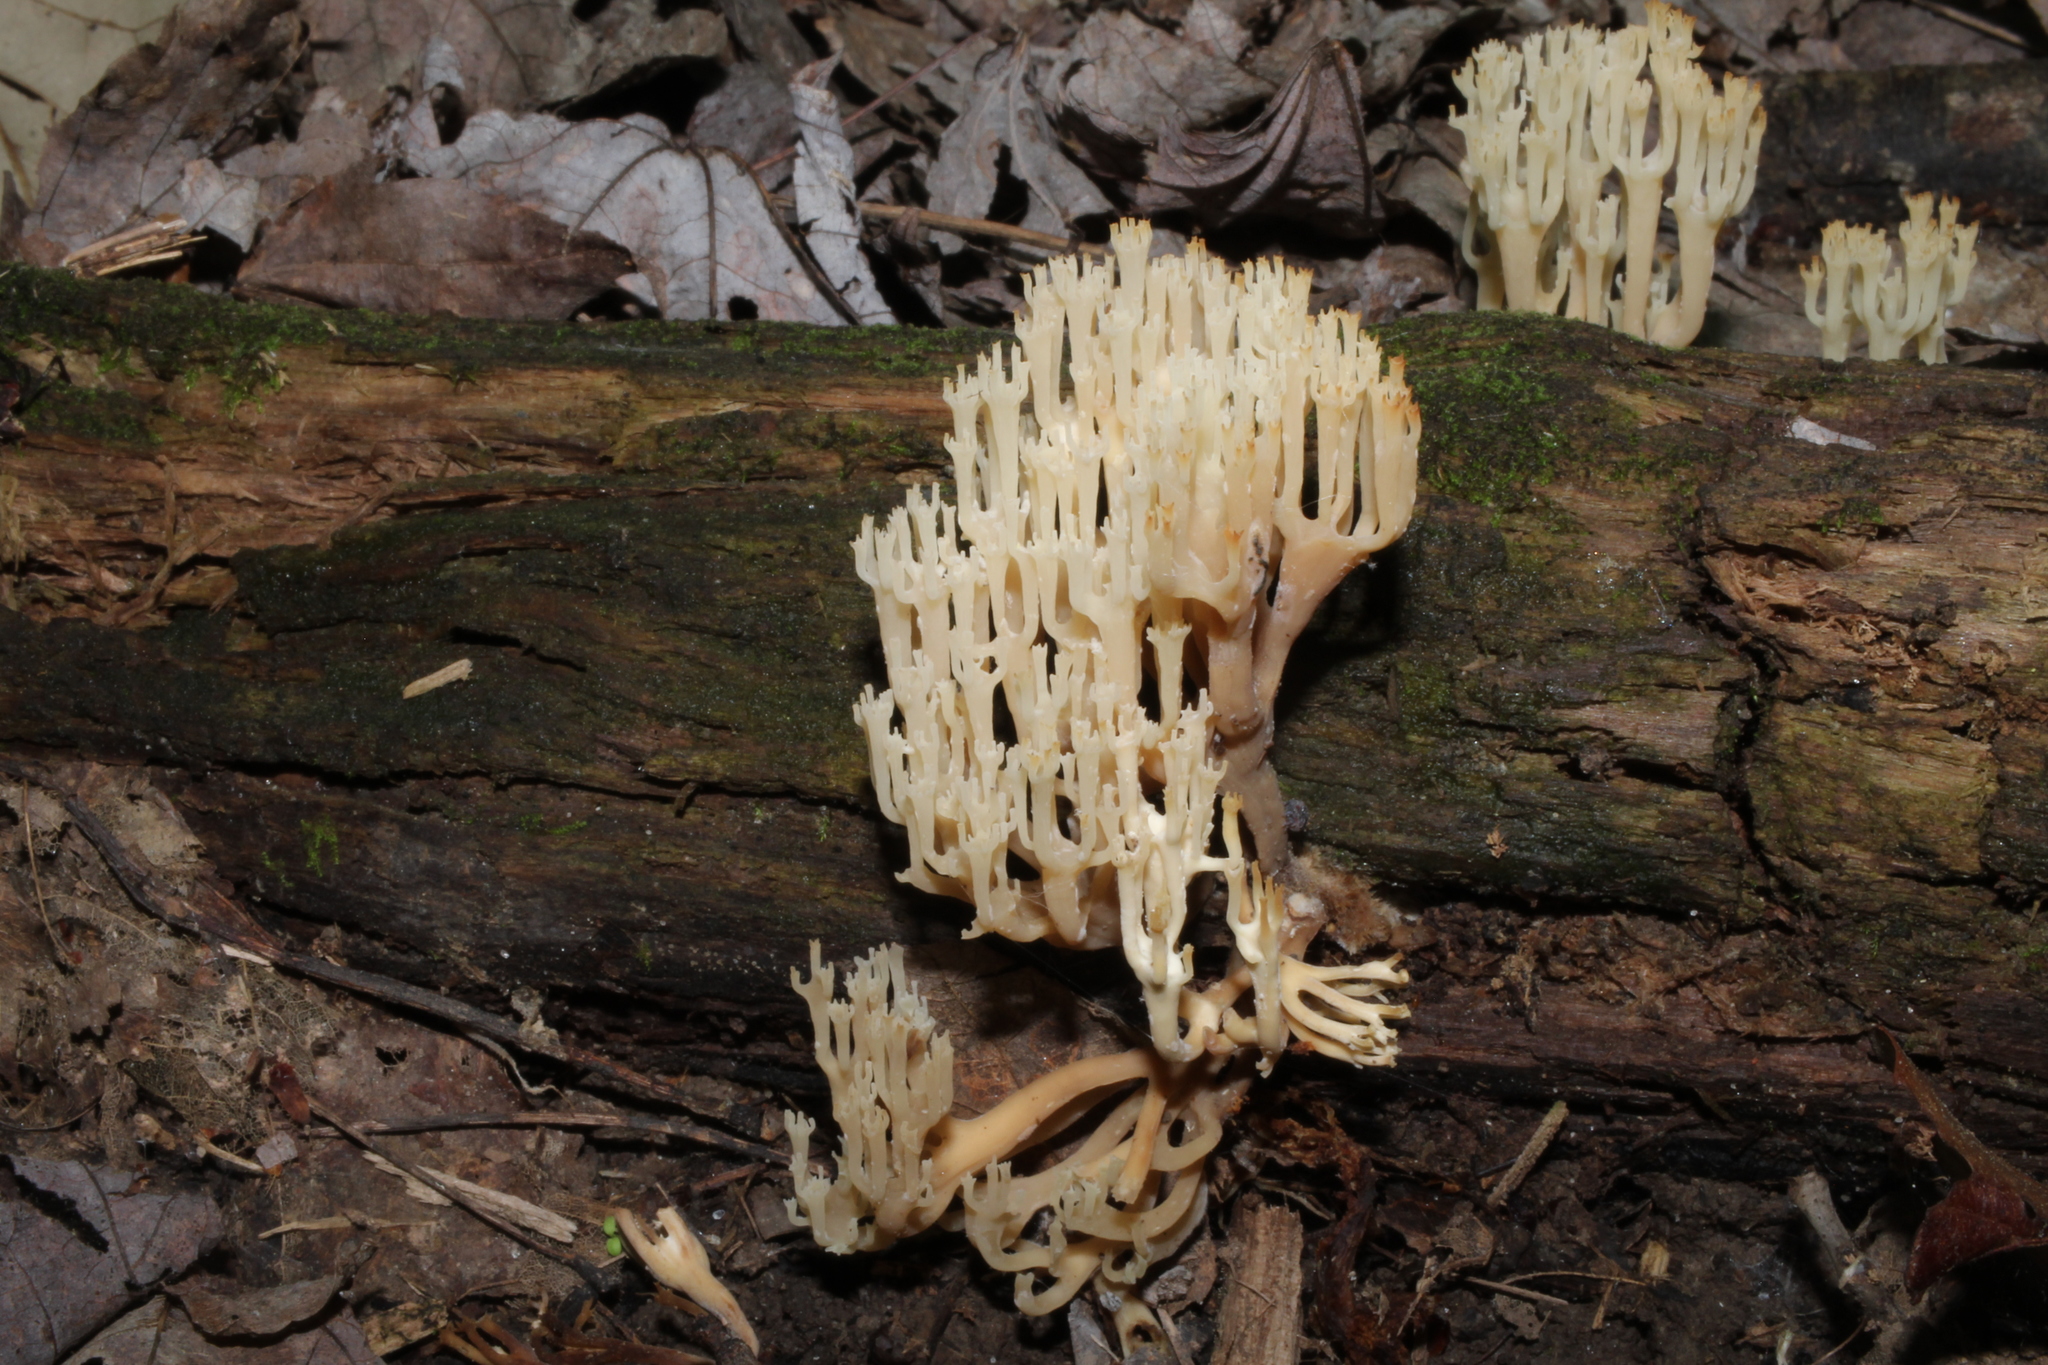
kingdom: Fungi
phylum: Basidiomycota
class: Agaricomycetes
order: Russulales
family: Auriscalpiaceae
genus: Artomyces
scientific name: Artomyces pyxidatus
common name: Crown-tipped coral fungus
